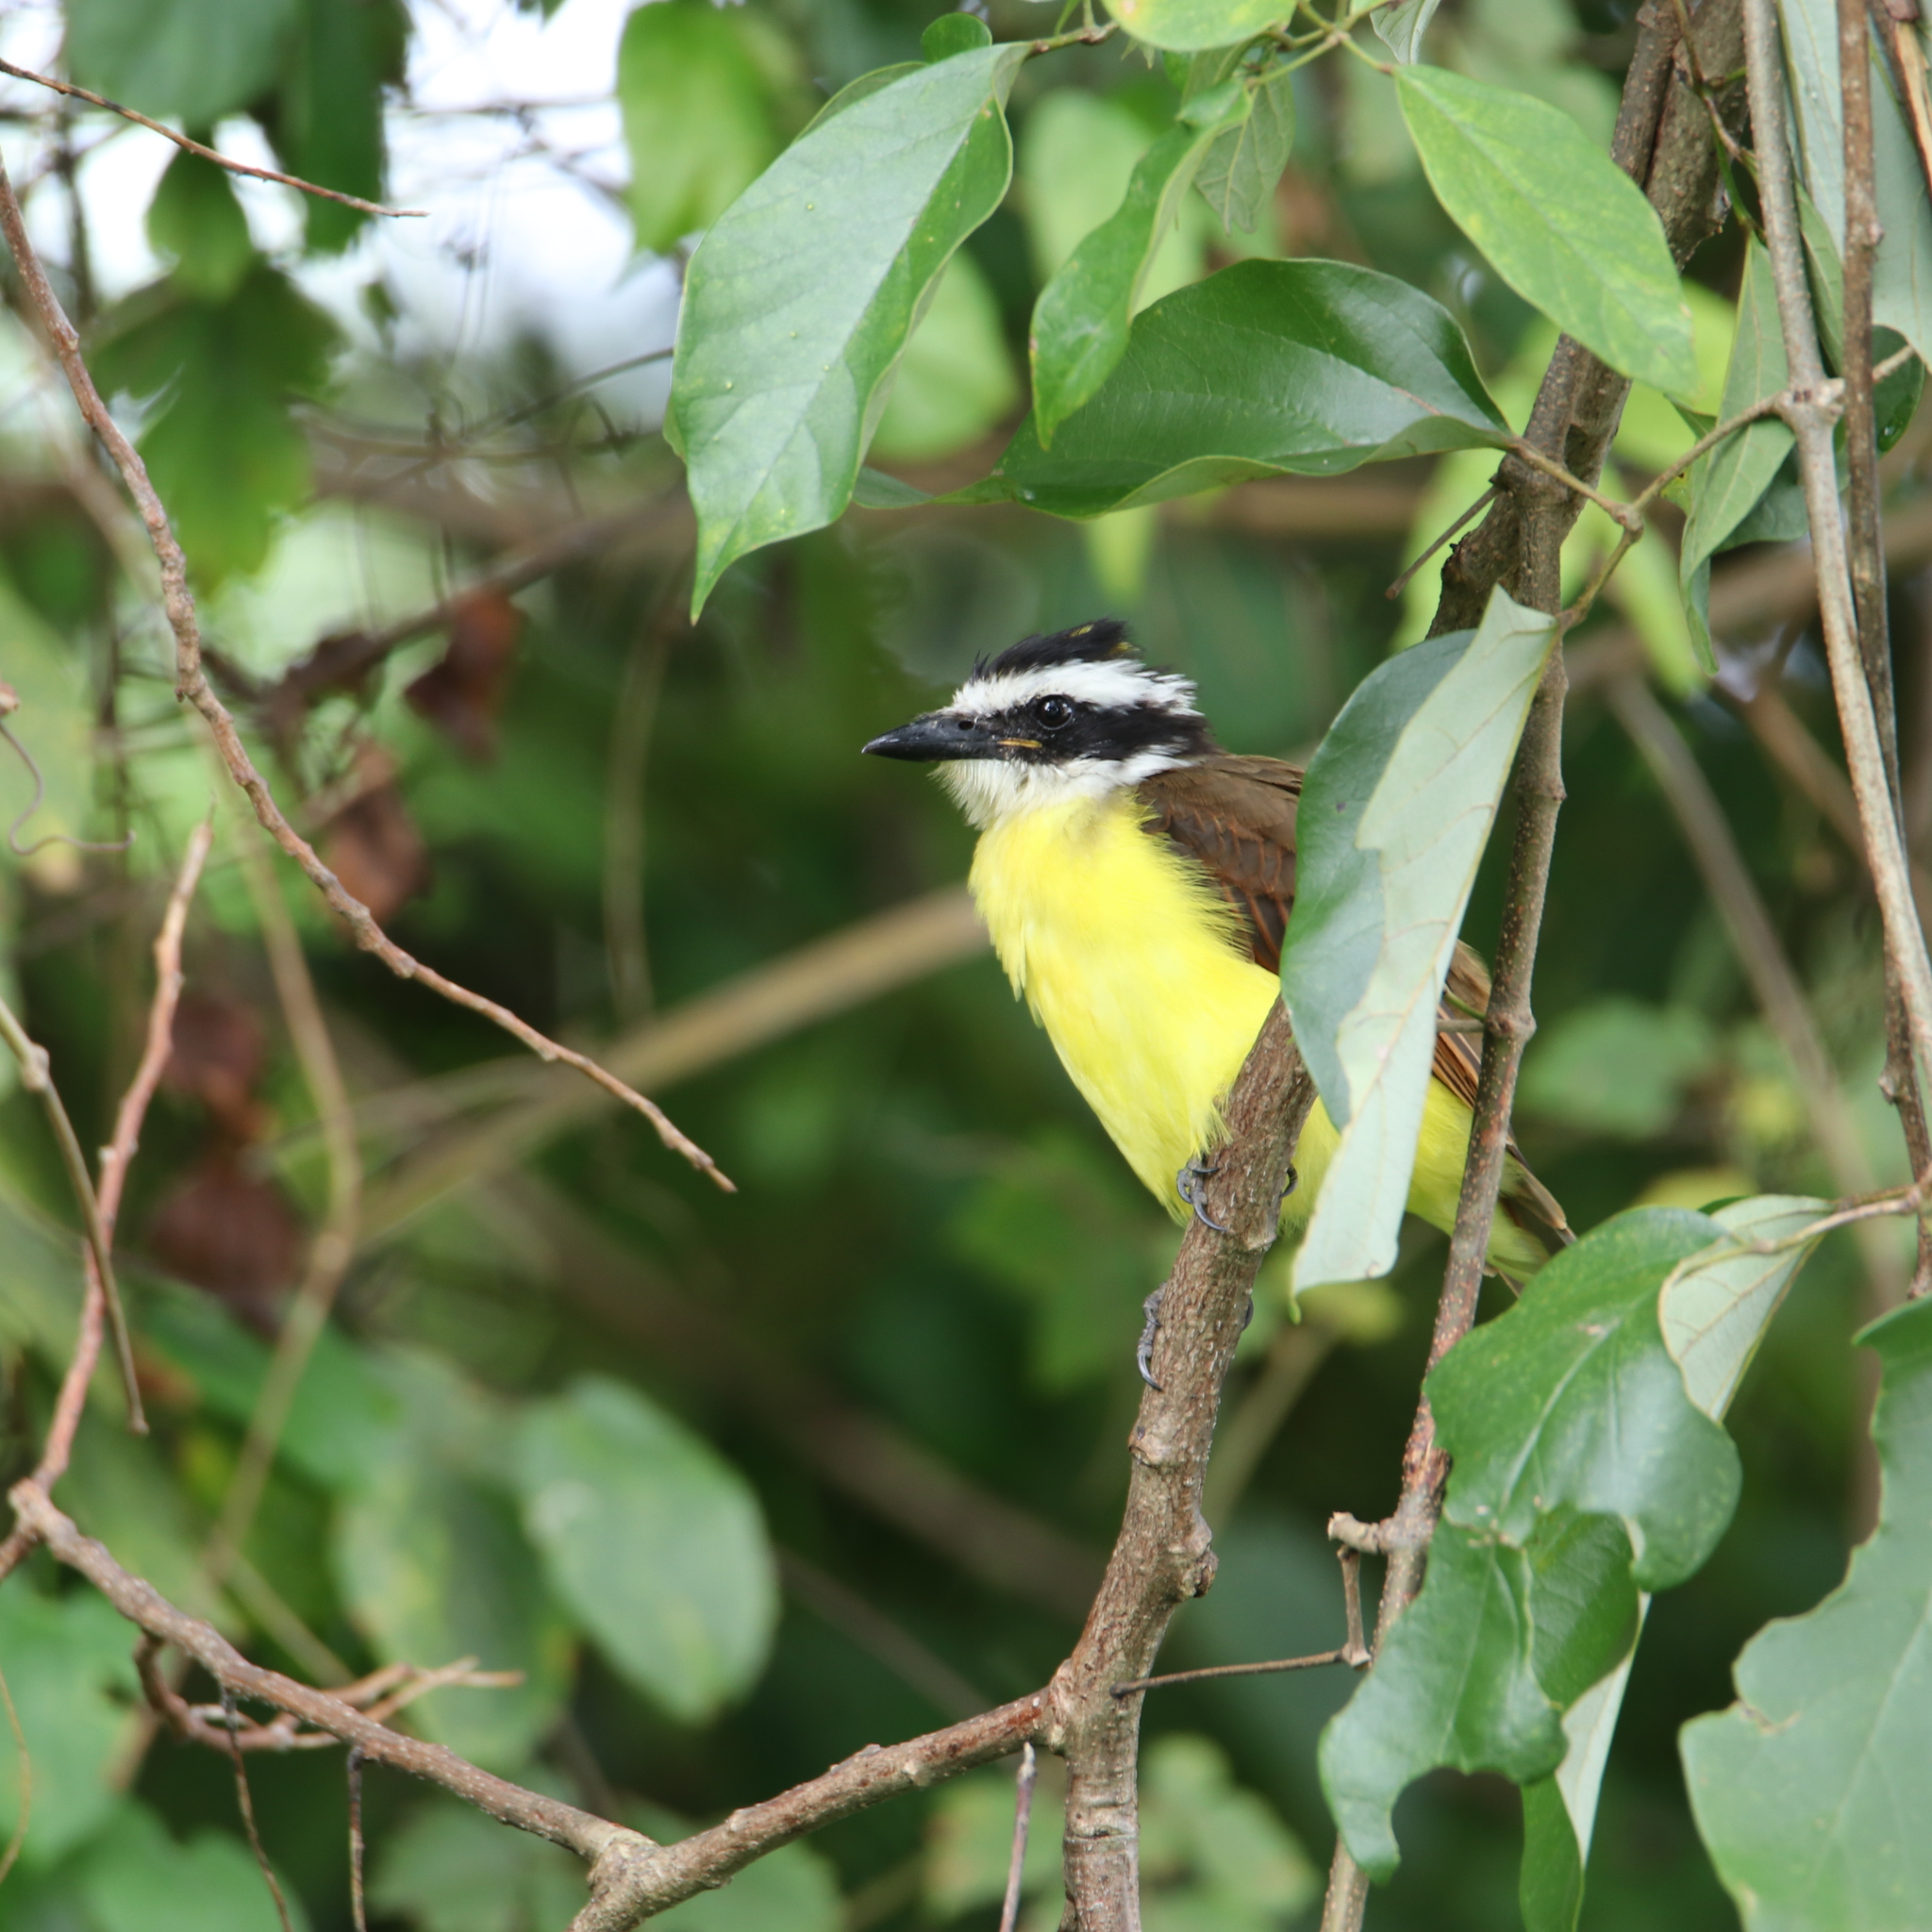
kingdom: Animalia
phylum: Chordata
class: Aves
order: Passeriformes
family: Tyrannidae
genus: Pitangus
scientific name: Pitangus sulphuratus
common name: Great kiskadee
